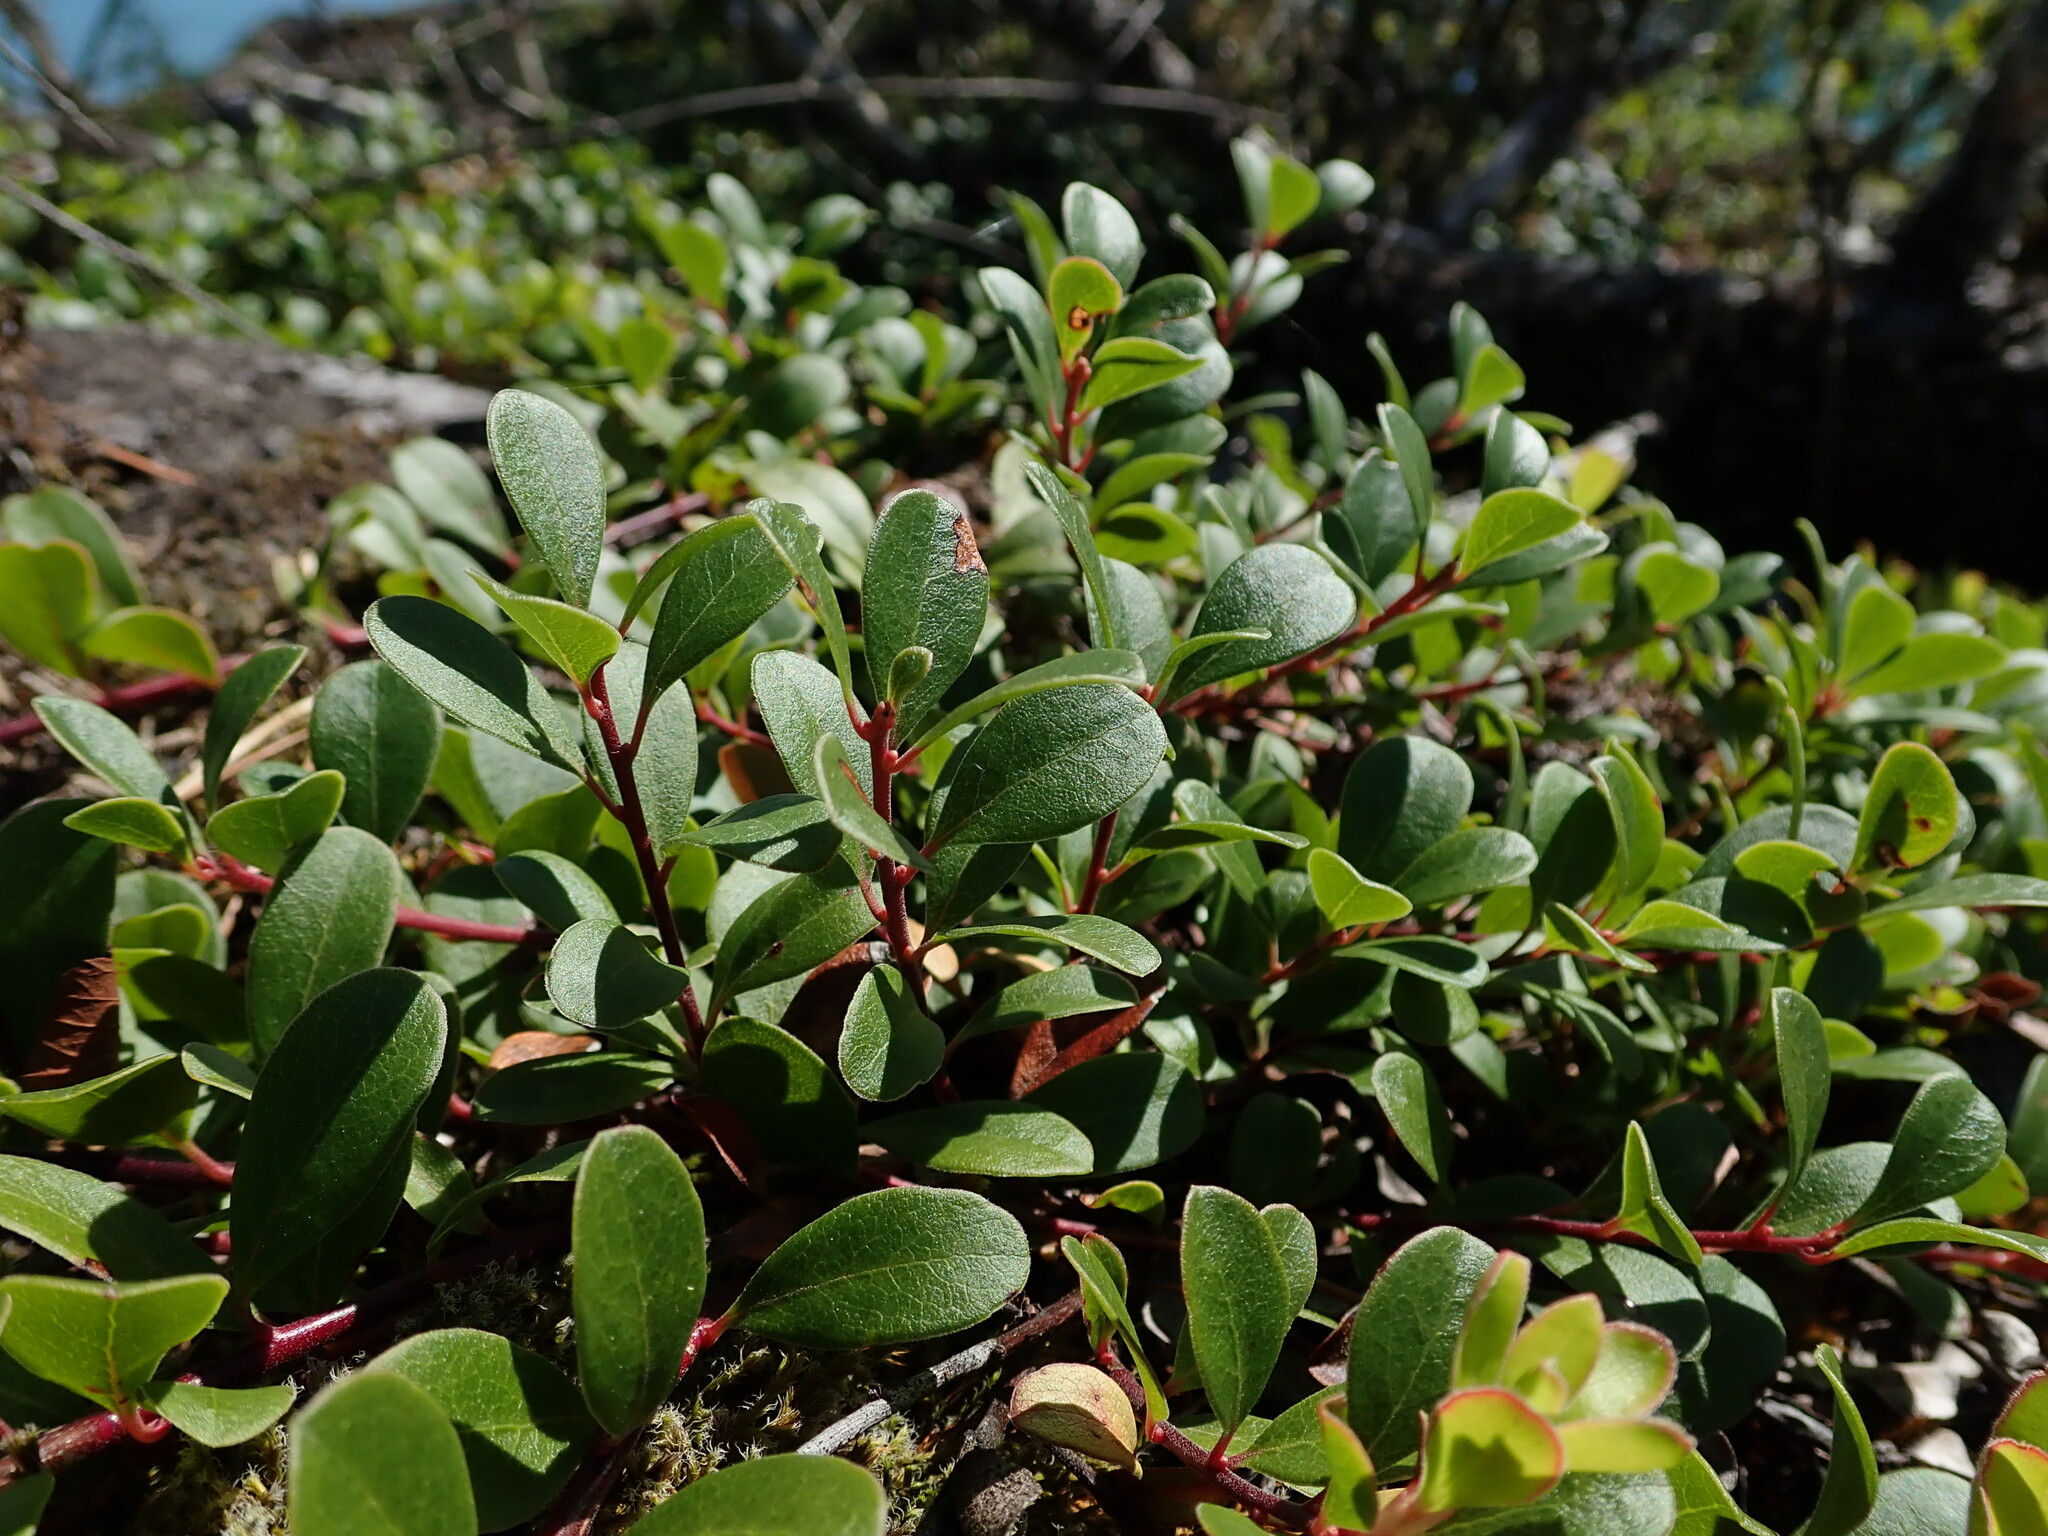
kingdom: Plantae
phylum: Tracheophyta
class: Magnoliopsida
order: Ericales
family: Ericaceae
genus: Arctostaphylos
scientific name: Arctostaphylos uva-ursi
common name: Bearberry
